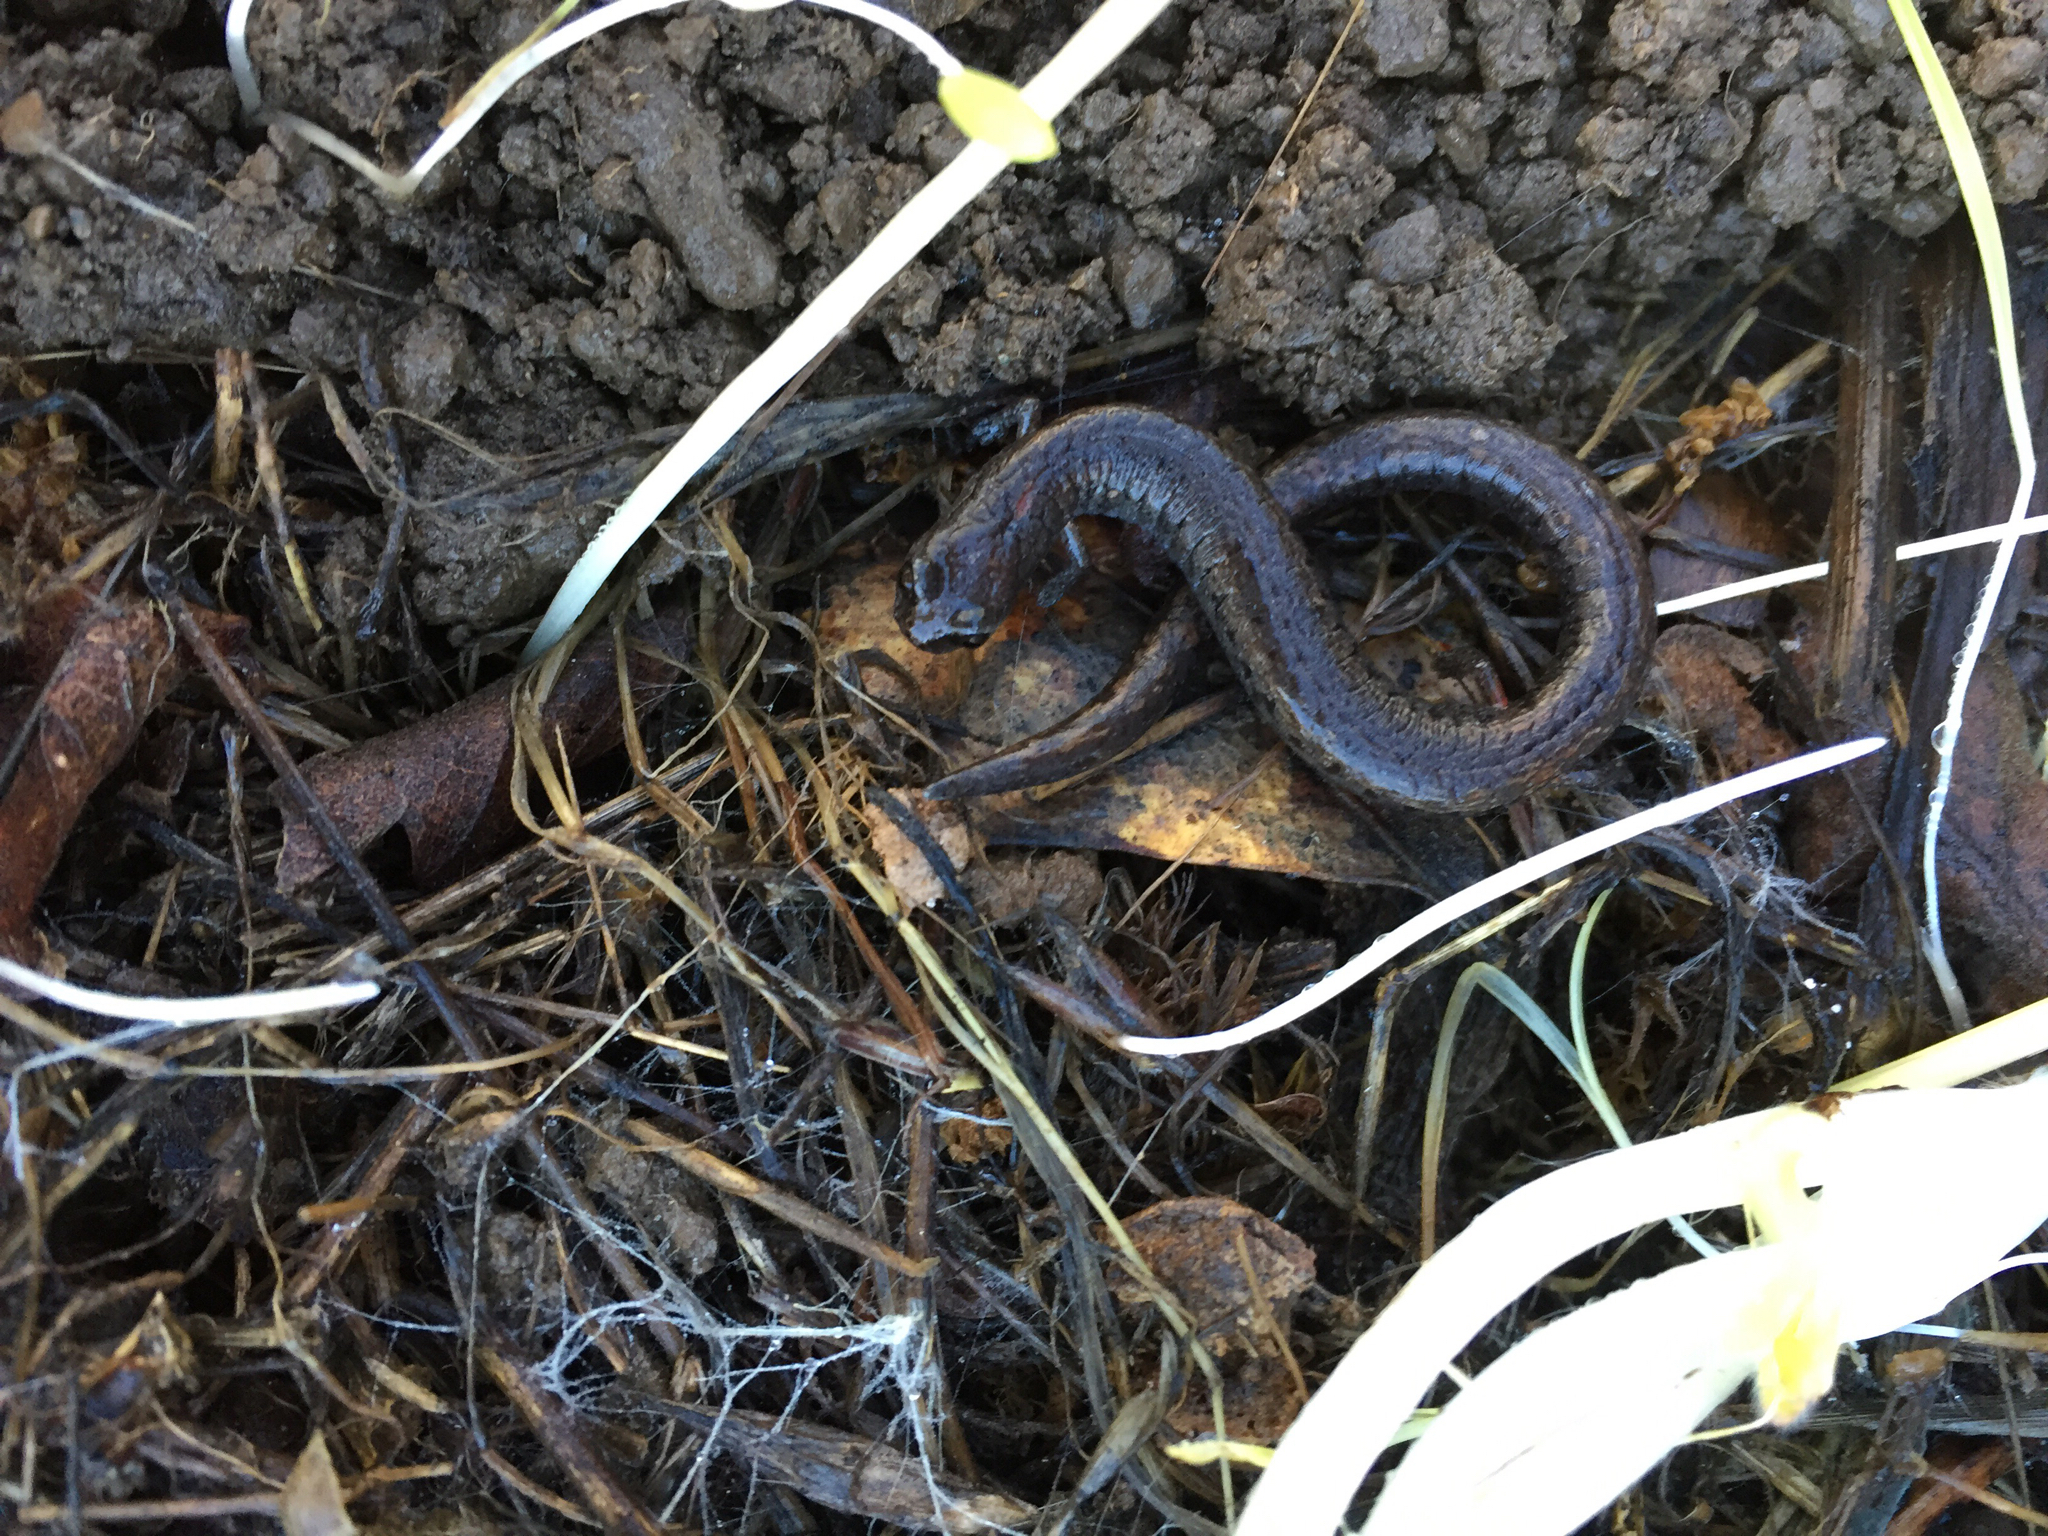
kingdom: Animalia
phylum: Chordata
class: Amphibia
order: Caudata
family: Plethodontidae
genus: Batrachoseps
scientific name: Batrachoseps attenuatus
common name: California slender salamander
